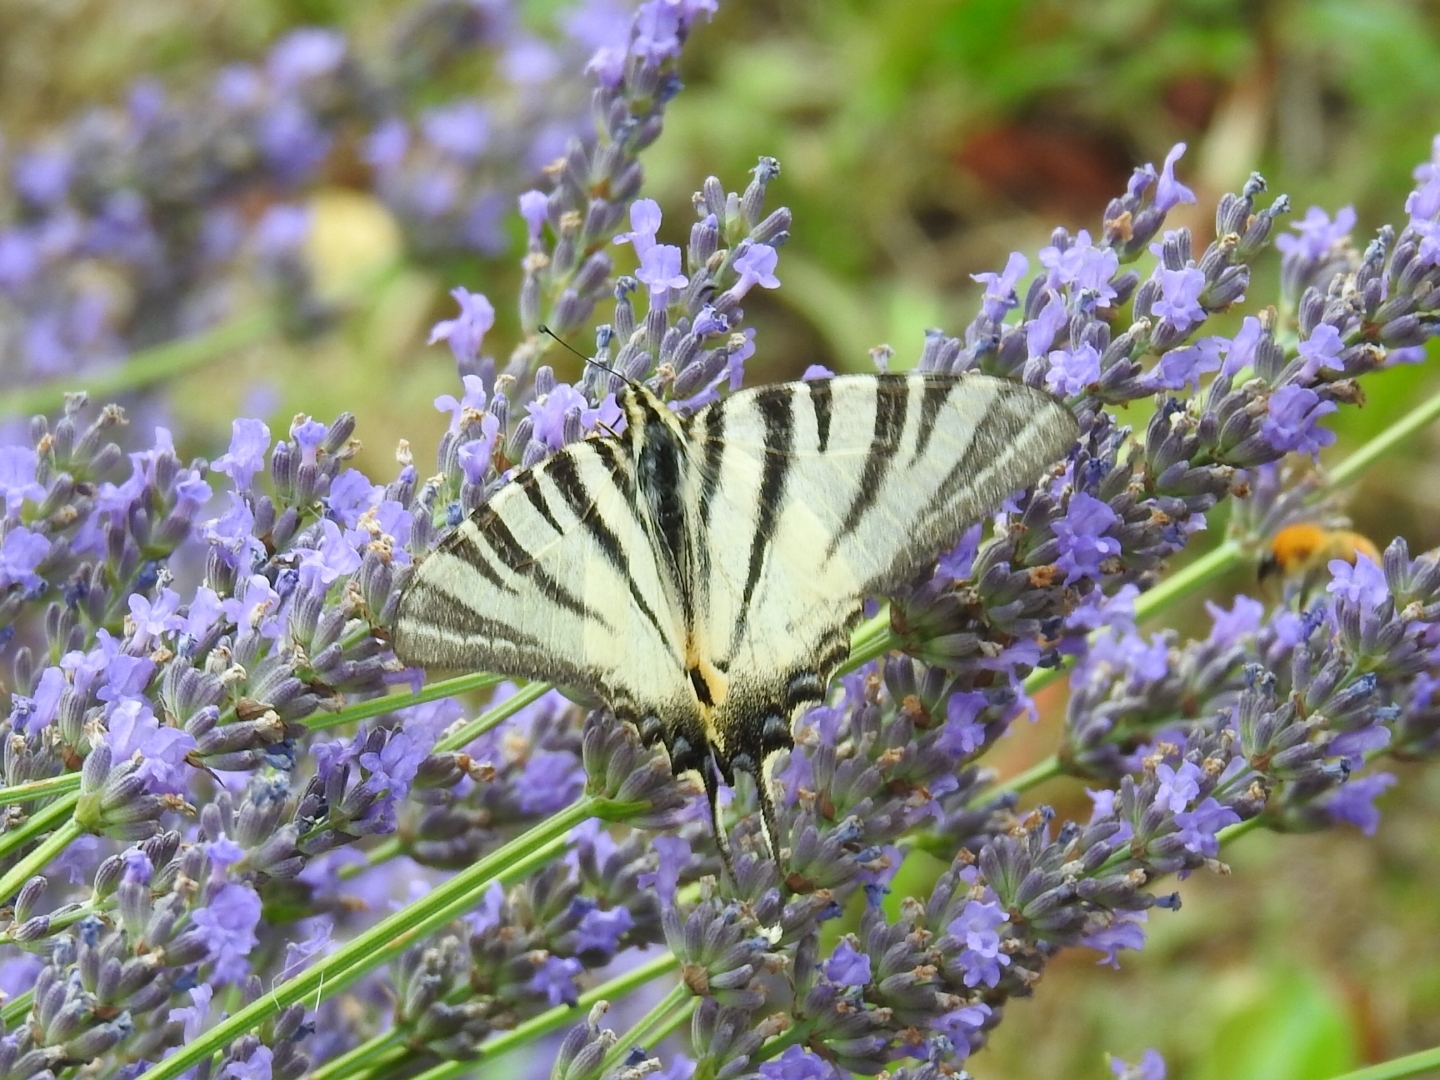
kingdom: Animalia
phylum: Arthropoda
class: Insecta
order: Lepidoptera
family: Papilionidae
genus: Iphiclides
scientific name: Iphiclides podalirius
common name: Scarce swallowtail
